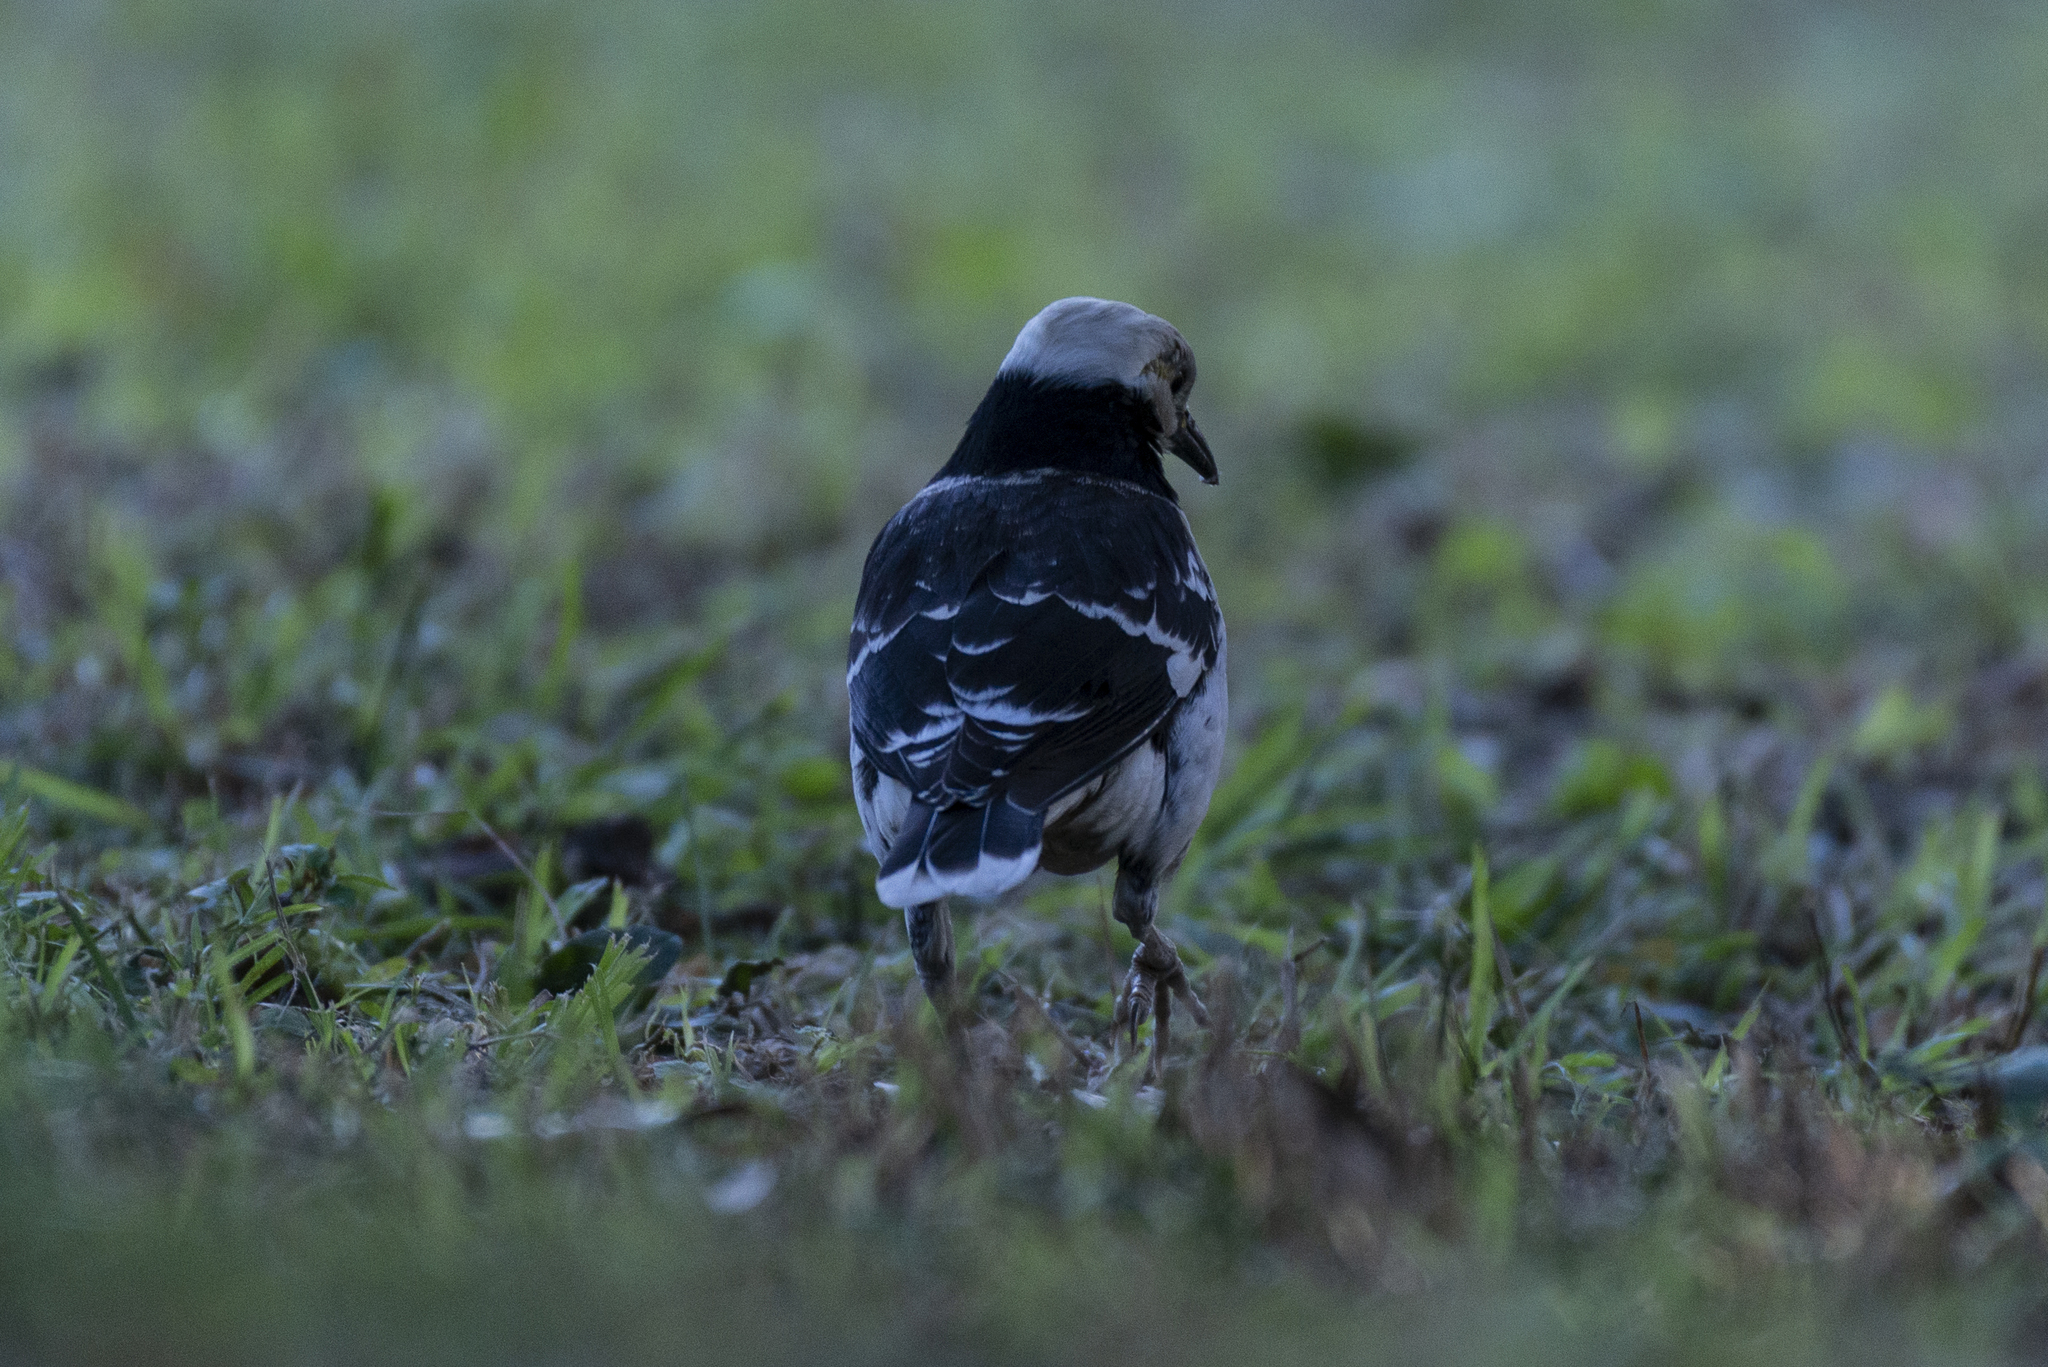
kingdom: Animalia
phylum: Chordata
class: Aves
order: Passeriformes
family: Sturnidae
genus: Gracupica
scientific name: Gracupica nigricollis
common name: Black-collared starling
